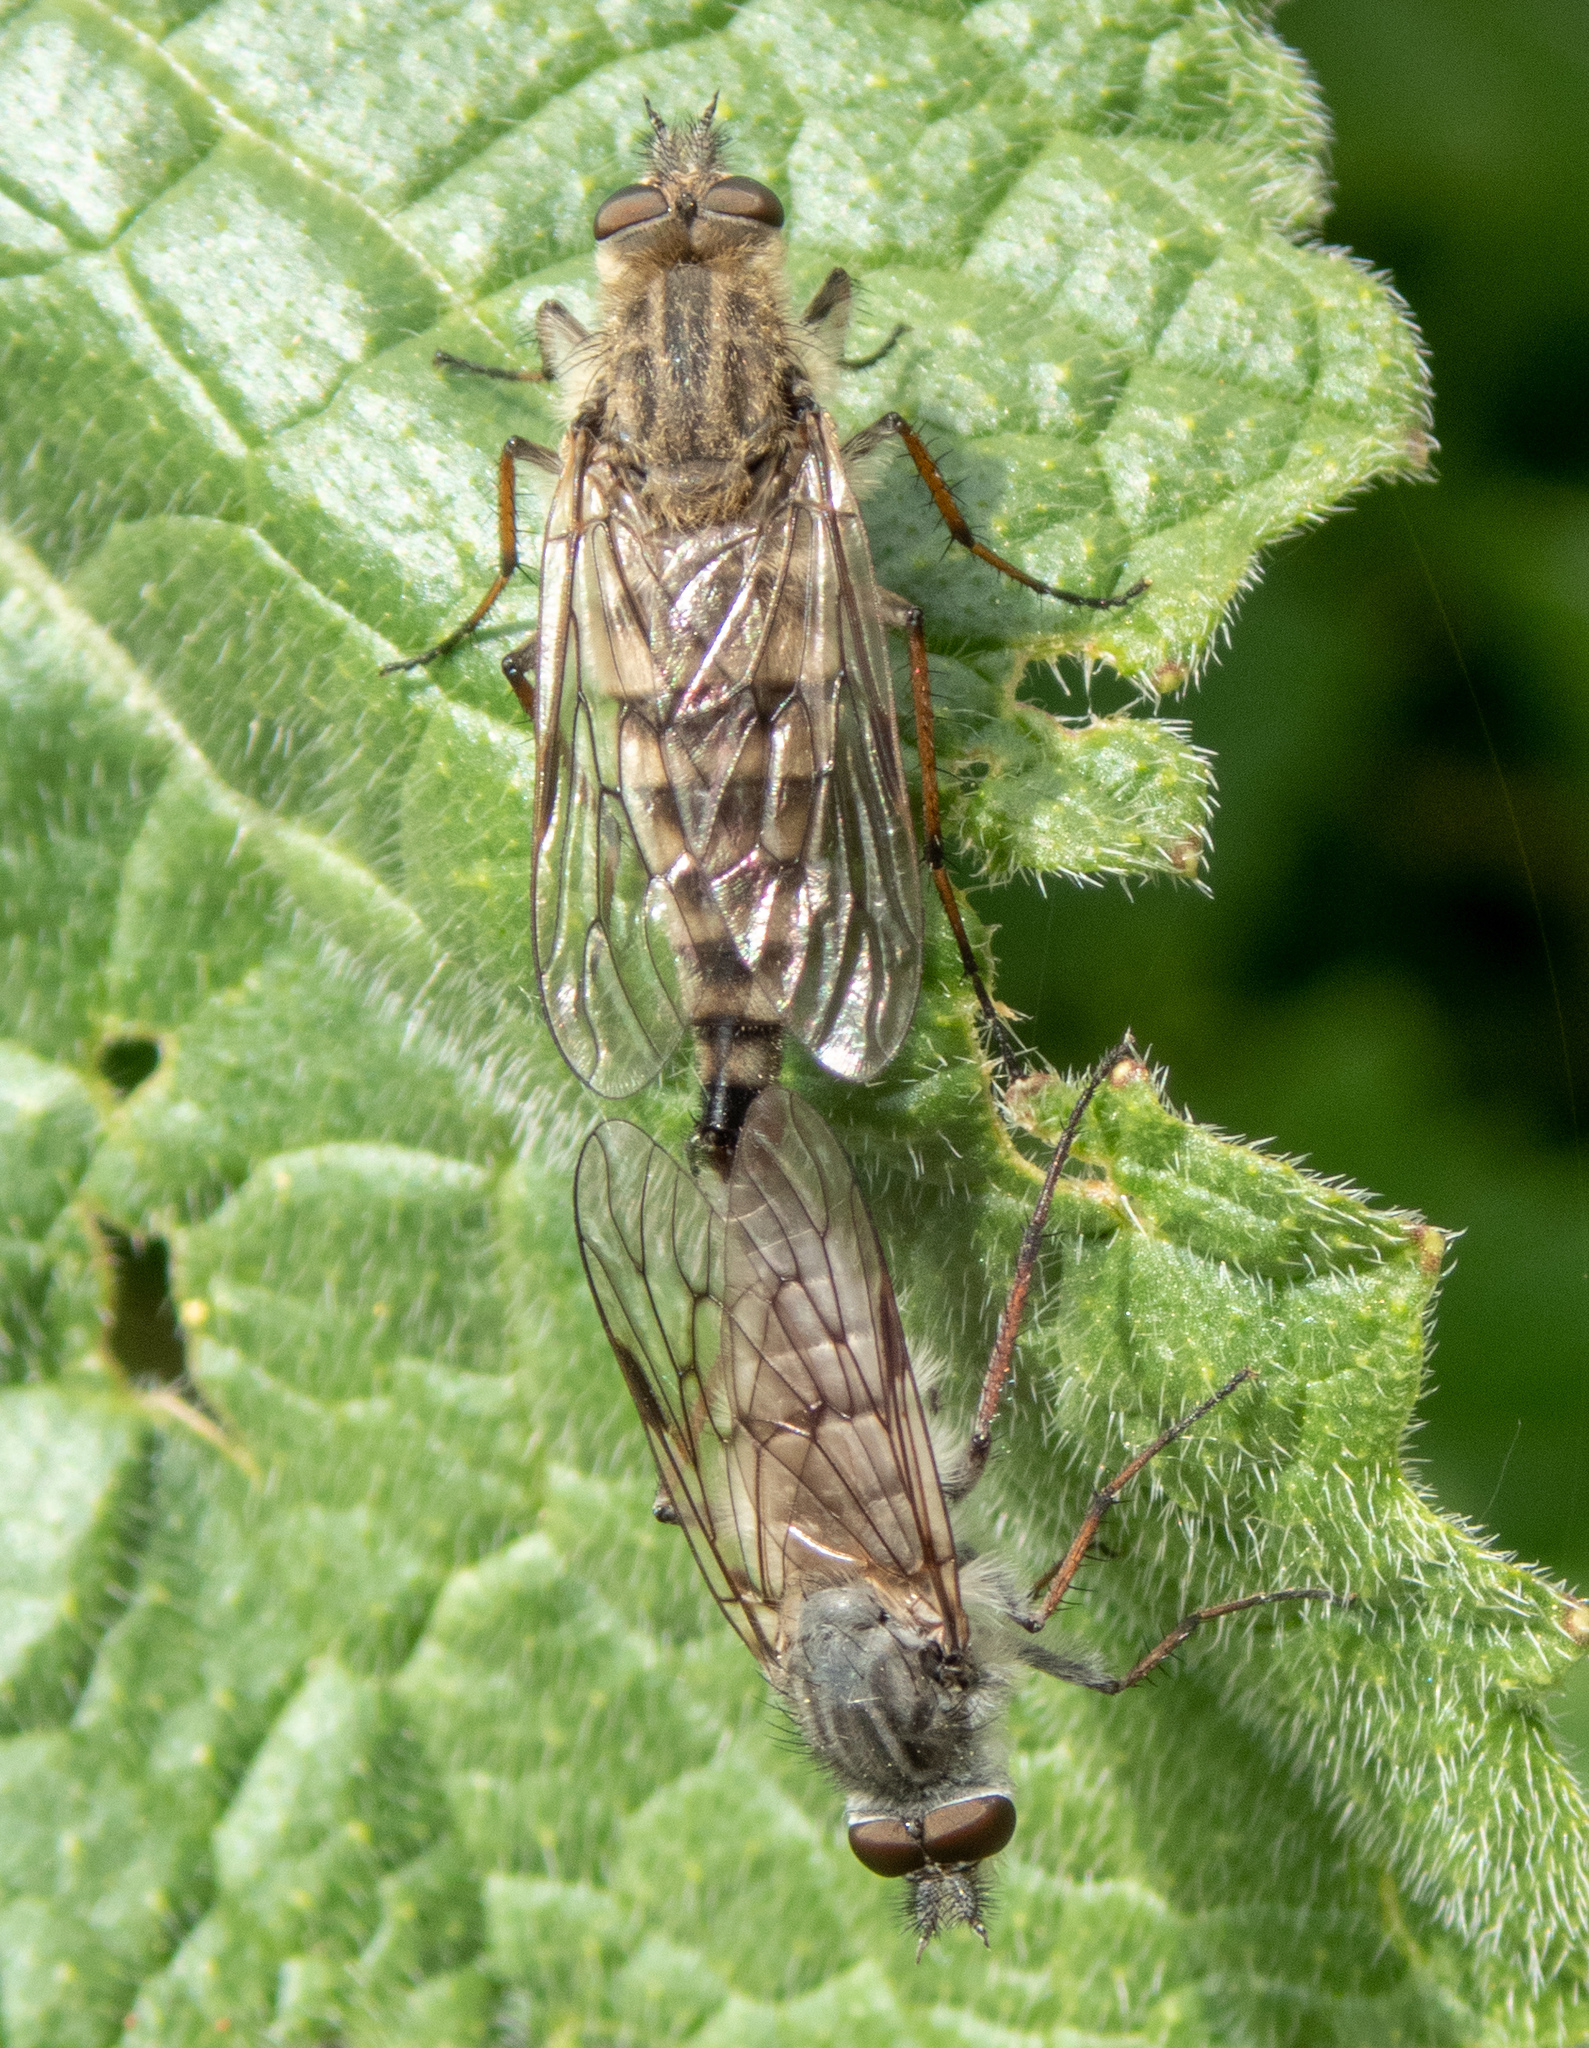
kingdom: Animalia
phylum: Arthropoda
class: Insecta
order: Diptera
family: Therevidae
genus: Pallicephala
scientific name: Pallicephala pachyceras
